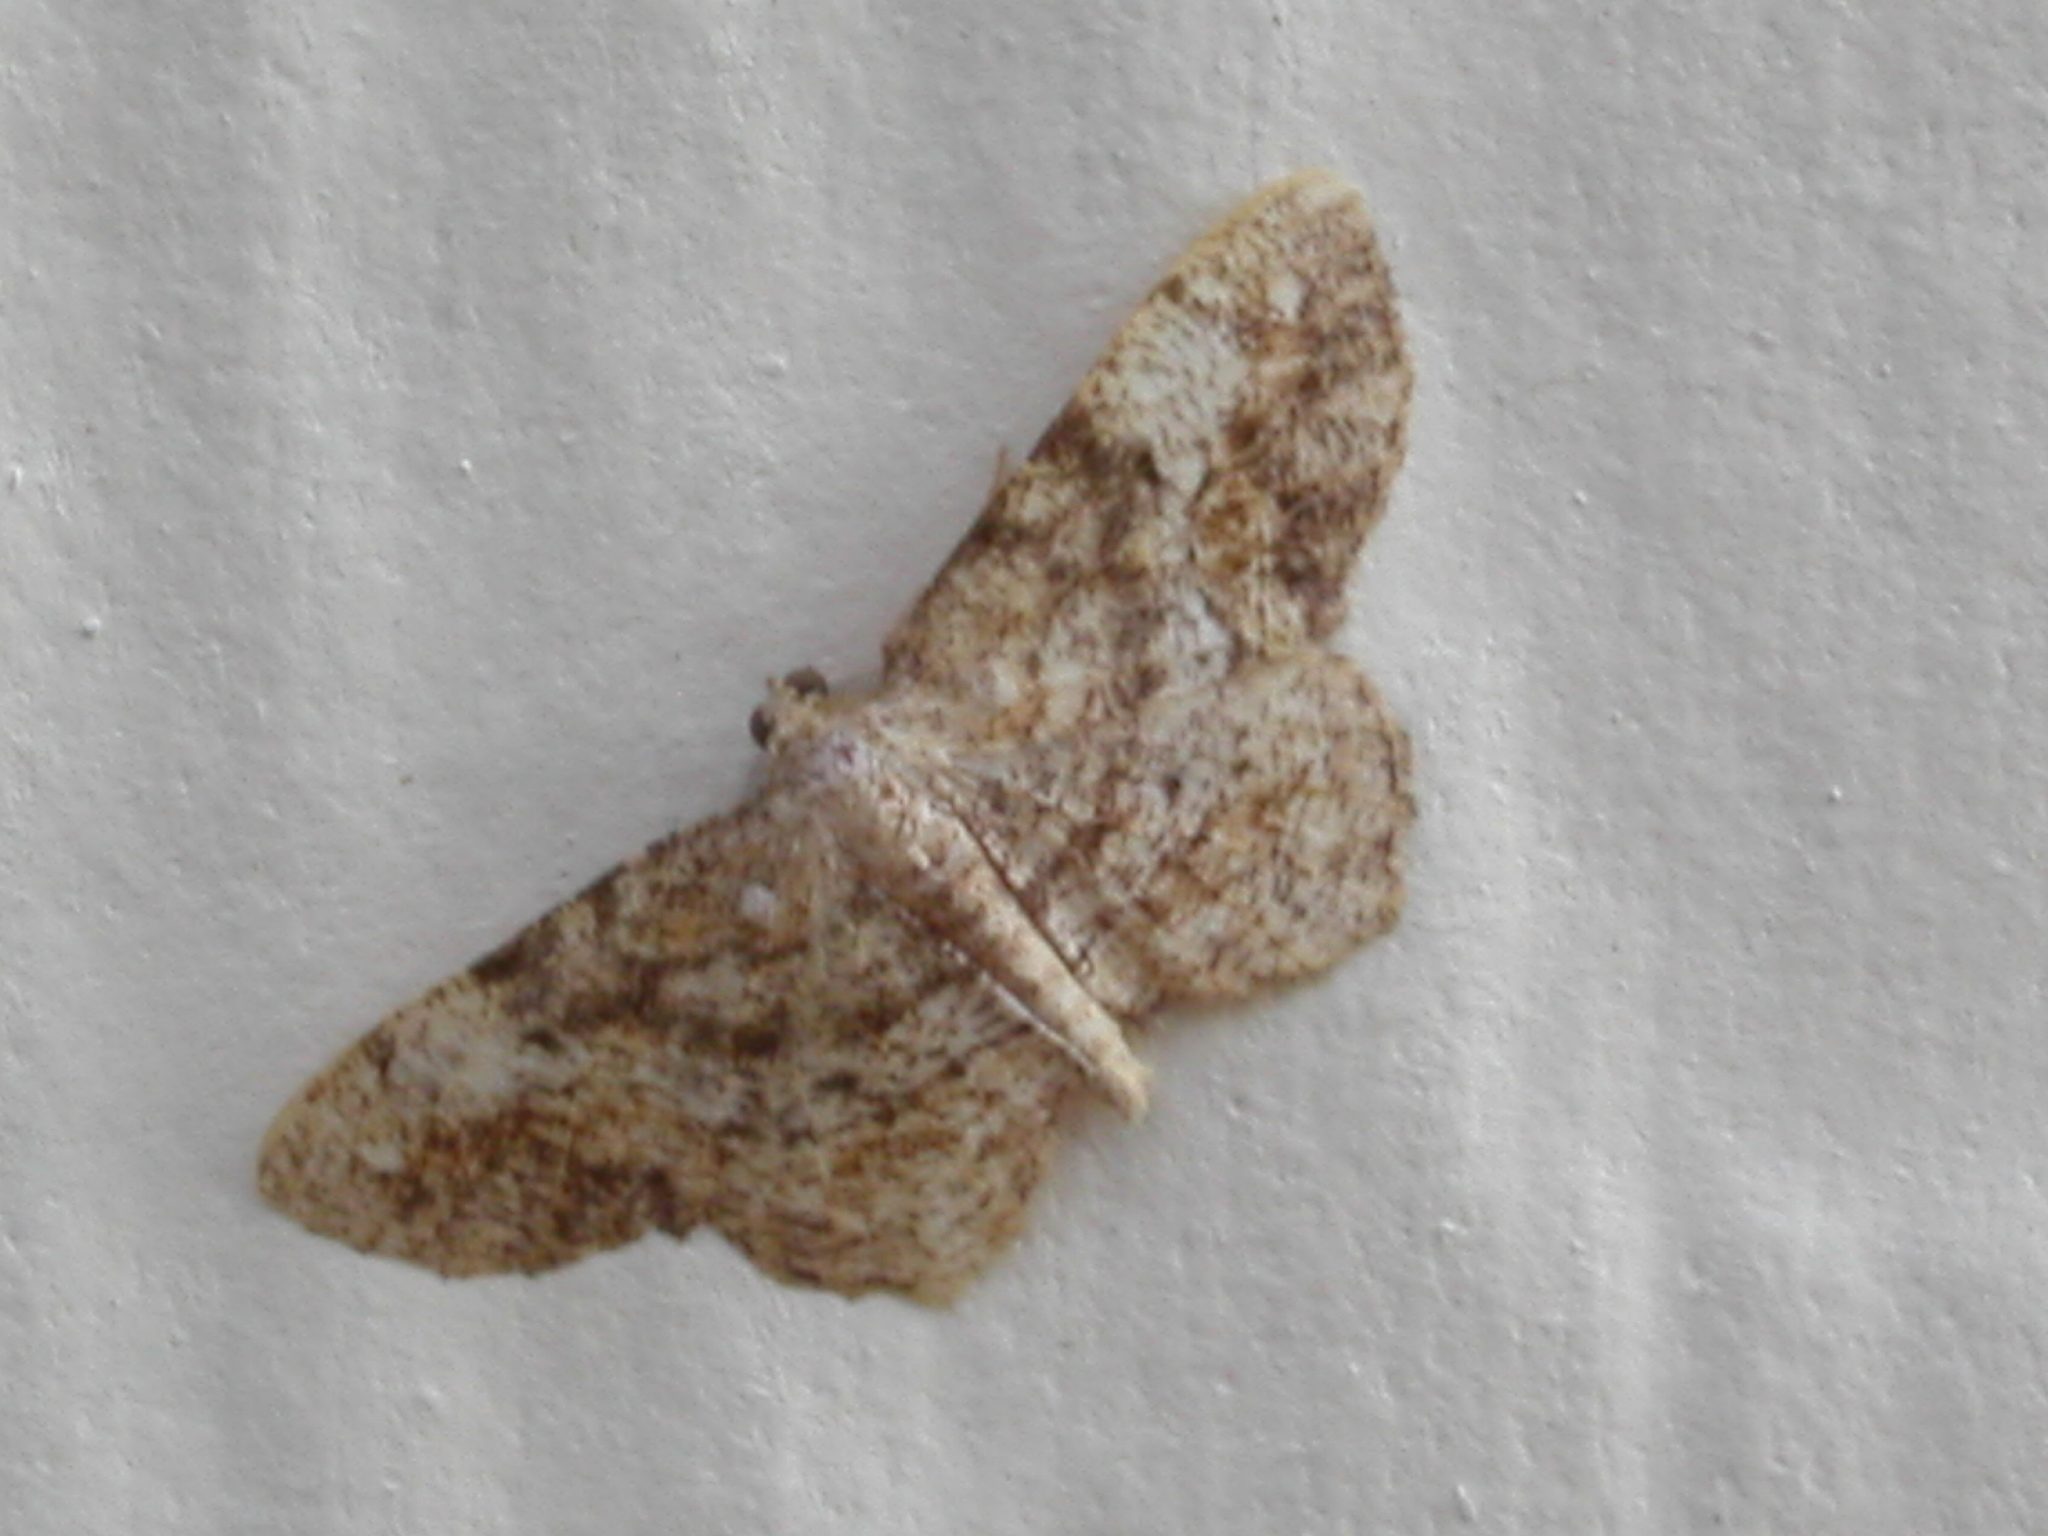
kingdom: Animalia
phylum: Arthropoda
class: Insecta
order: Lepidoptera
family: Geometridae
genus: Hypagyrtis
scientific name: Hypagyrtis unipunctata
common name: One-spotted variant
